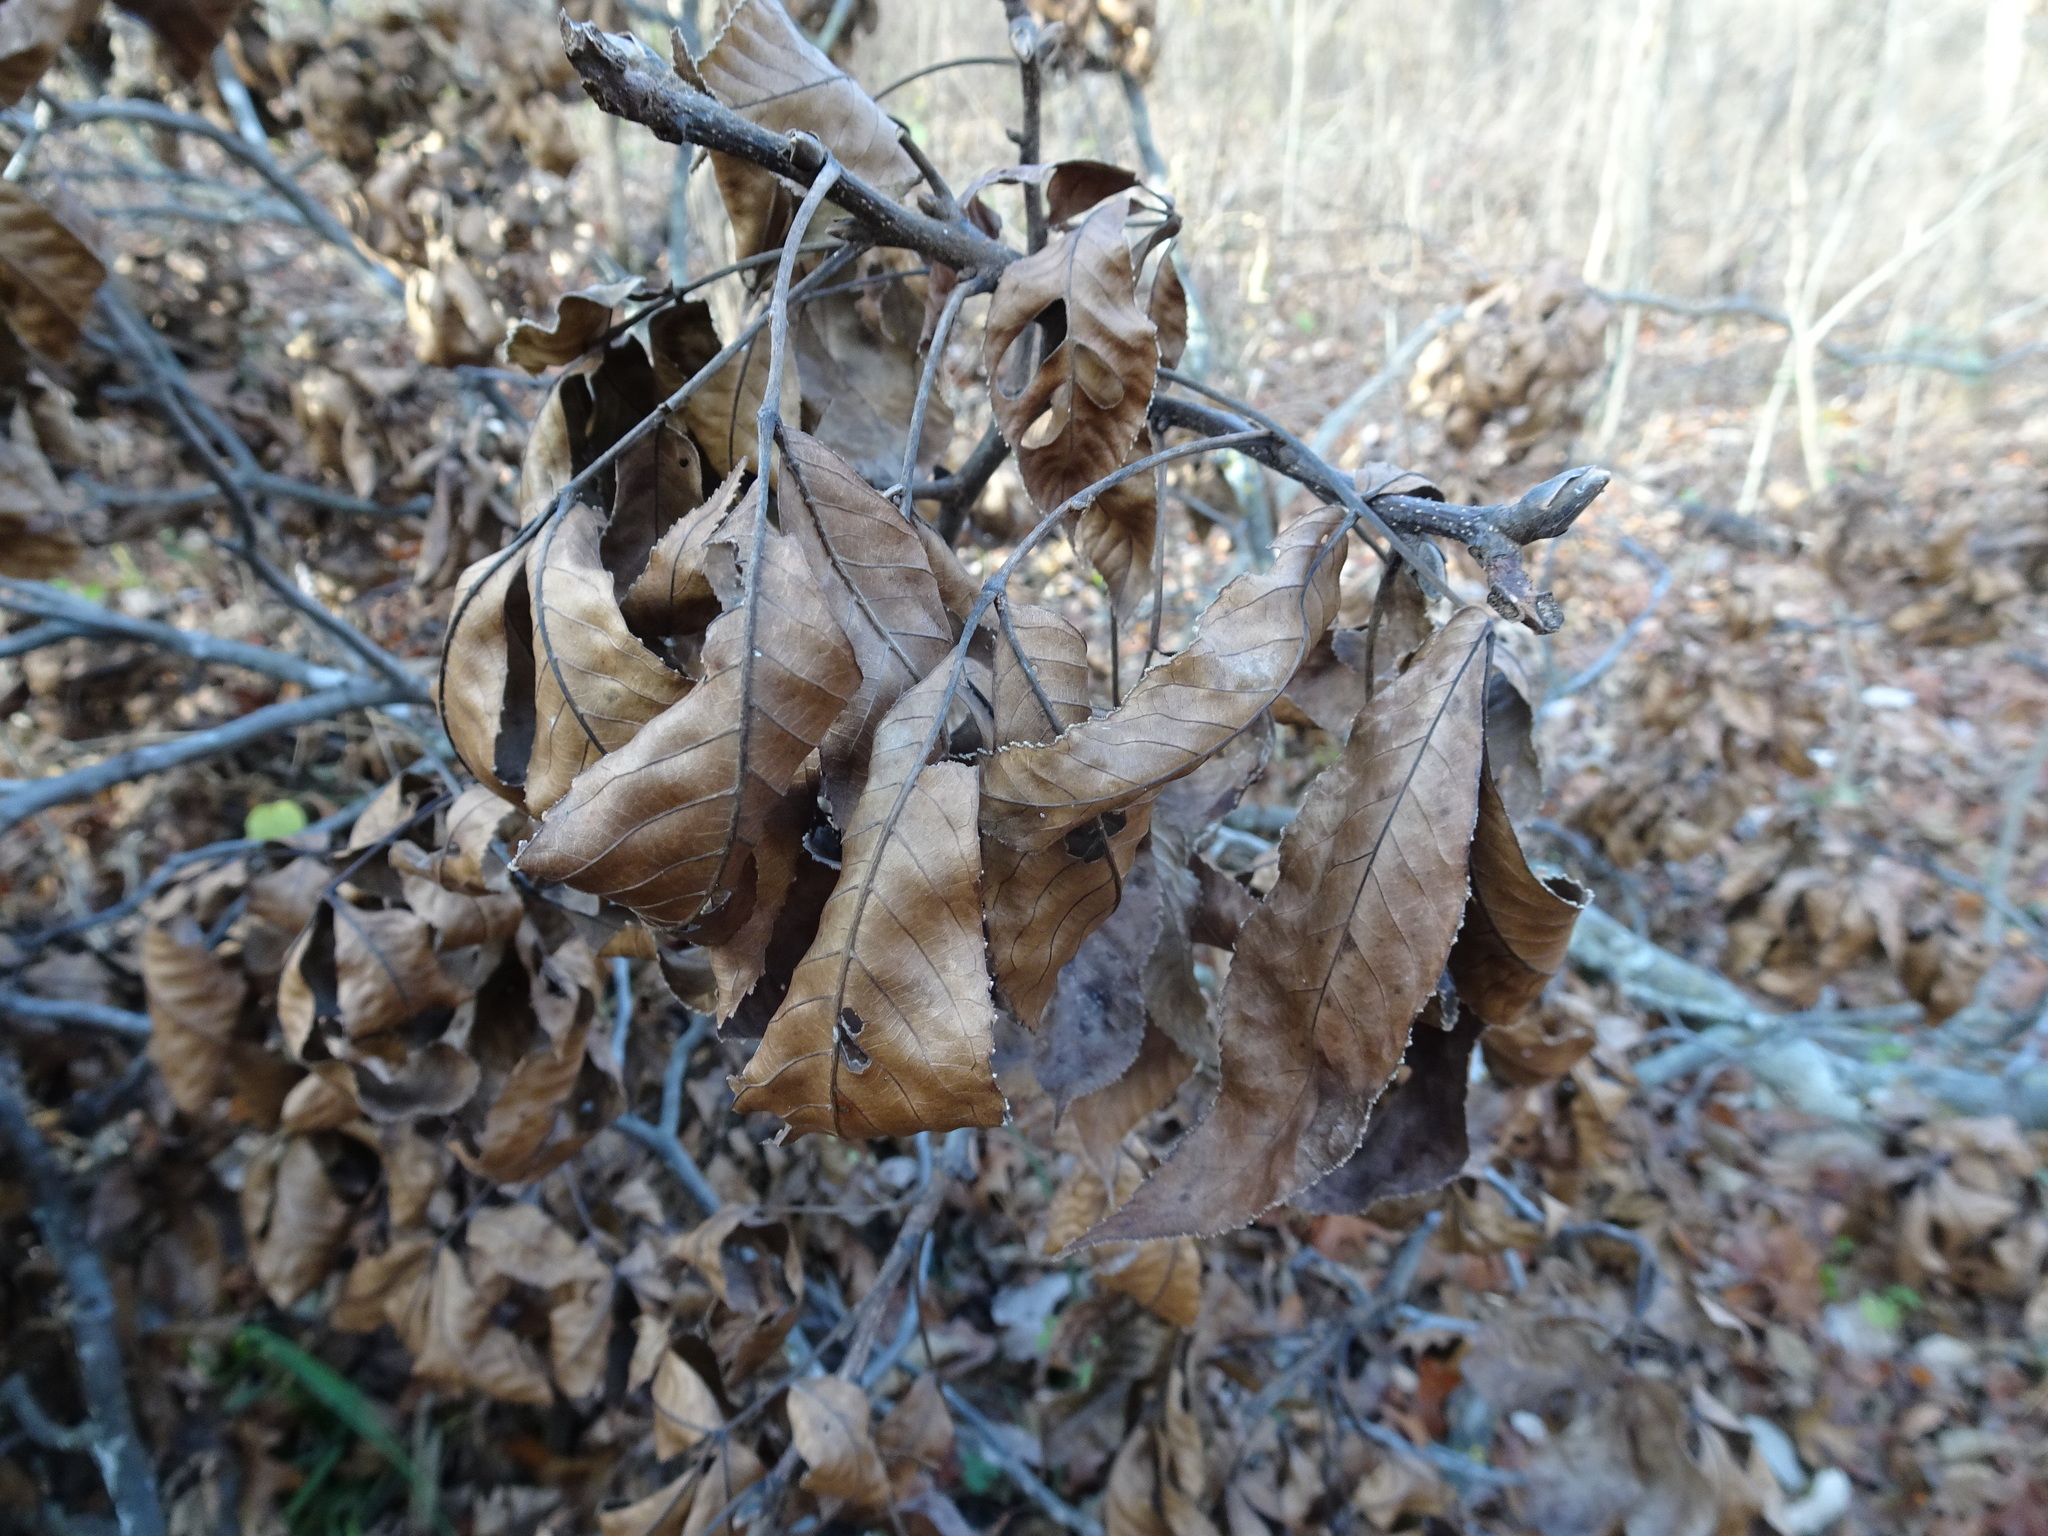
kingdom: Plantae
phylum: Tracheophyta
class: Magnoliopsida
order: Fagales
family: Juglandaceae
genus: Carya
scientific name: Carya ovata
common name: Shagbark hickory
